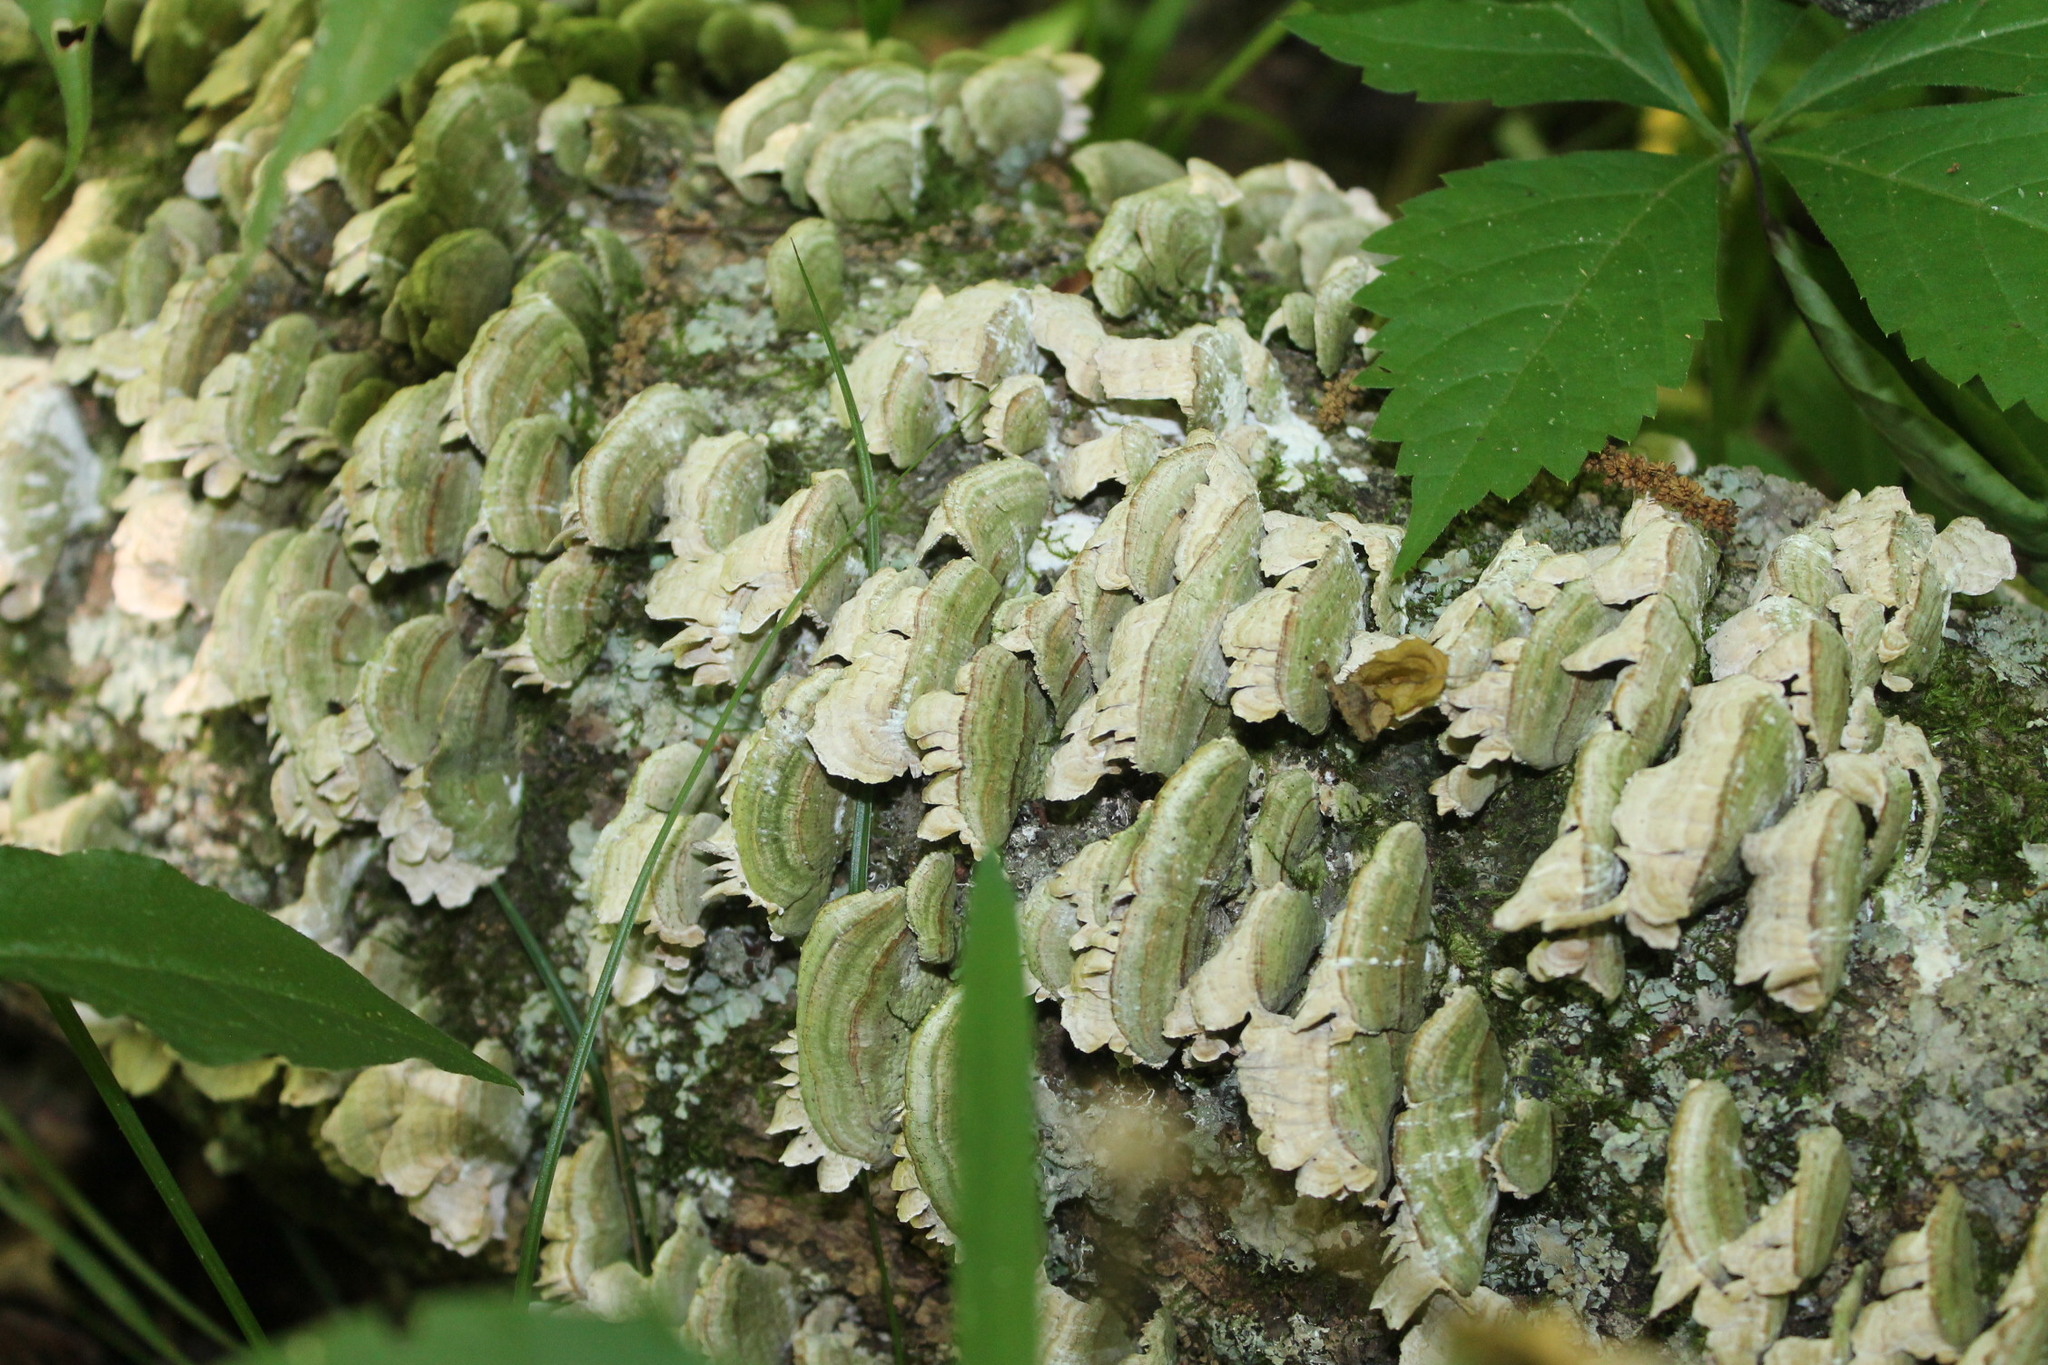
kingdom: Fungi
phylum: Basidiomycota
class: Agaricomycetes
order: Hymenochaetales
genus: Trichaptum
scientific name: Trichaptum biforme
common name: Violet-toothed polypore
